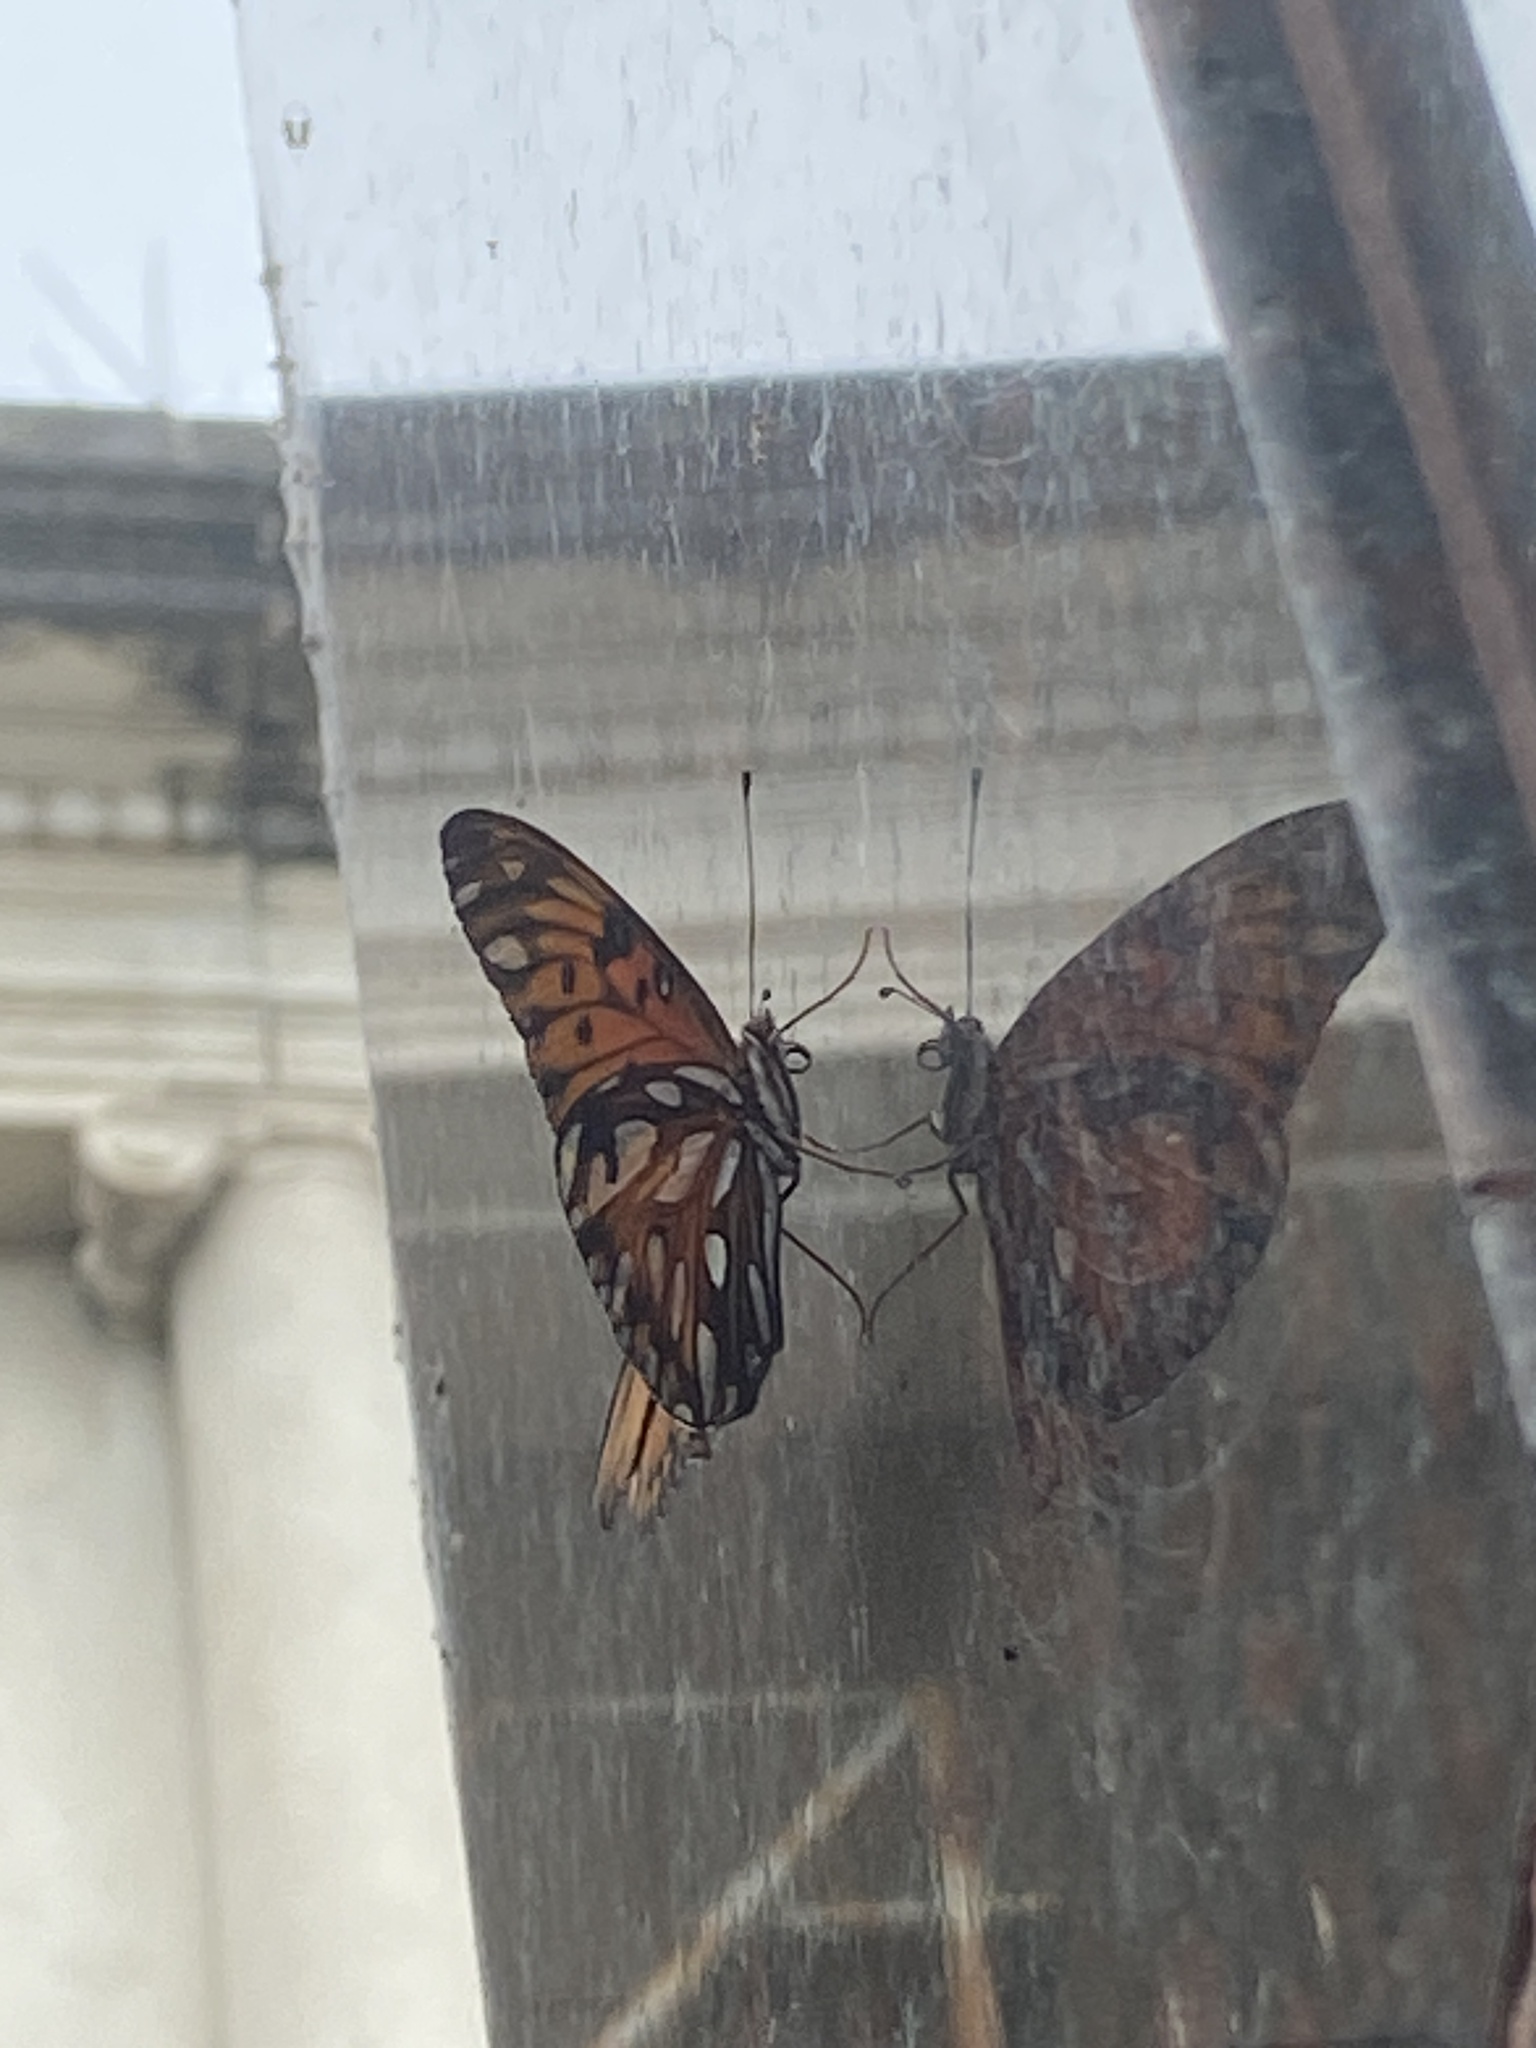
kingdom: Animalia
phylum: Arthropoda
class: Insecta
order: Lepidoptera
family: Nymphalidae
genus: Dione
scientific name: Dione vanillae
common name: Gulf fritillary
